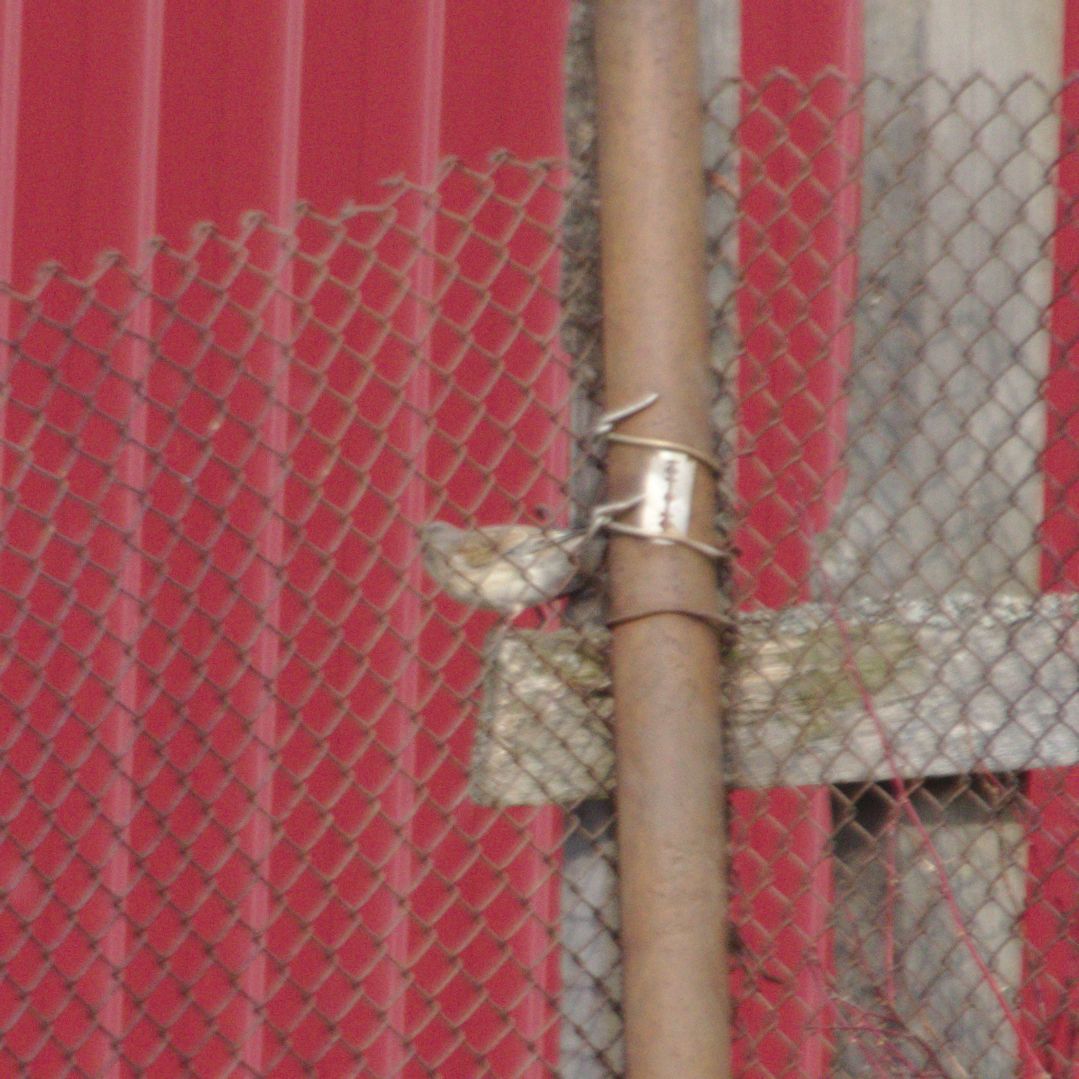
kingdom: Animalia
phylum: Chordata
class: Aves
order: Passeriformes
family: Fringillidae
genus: Linaria
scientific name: Linaria cannabina
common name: Common linnet
